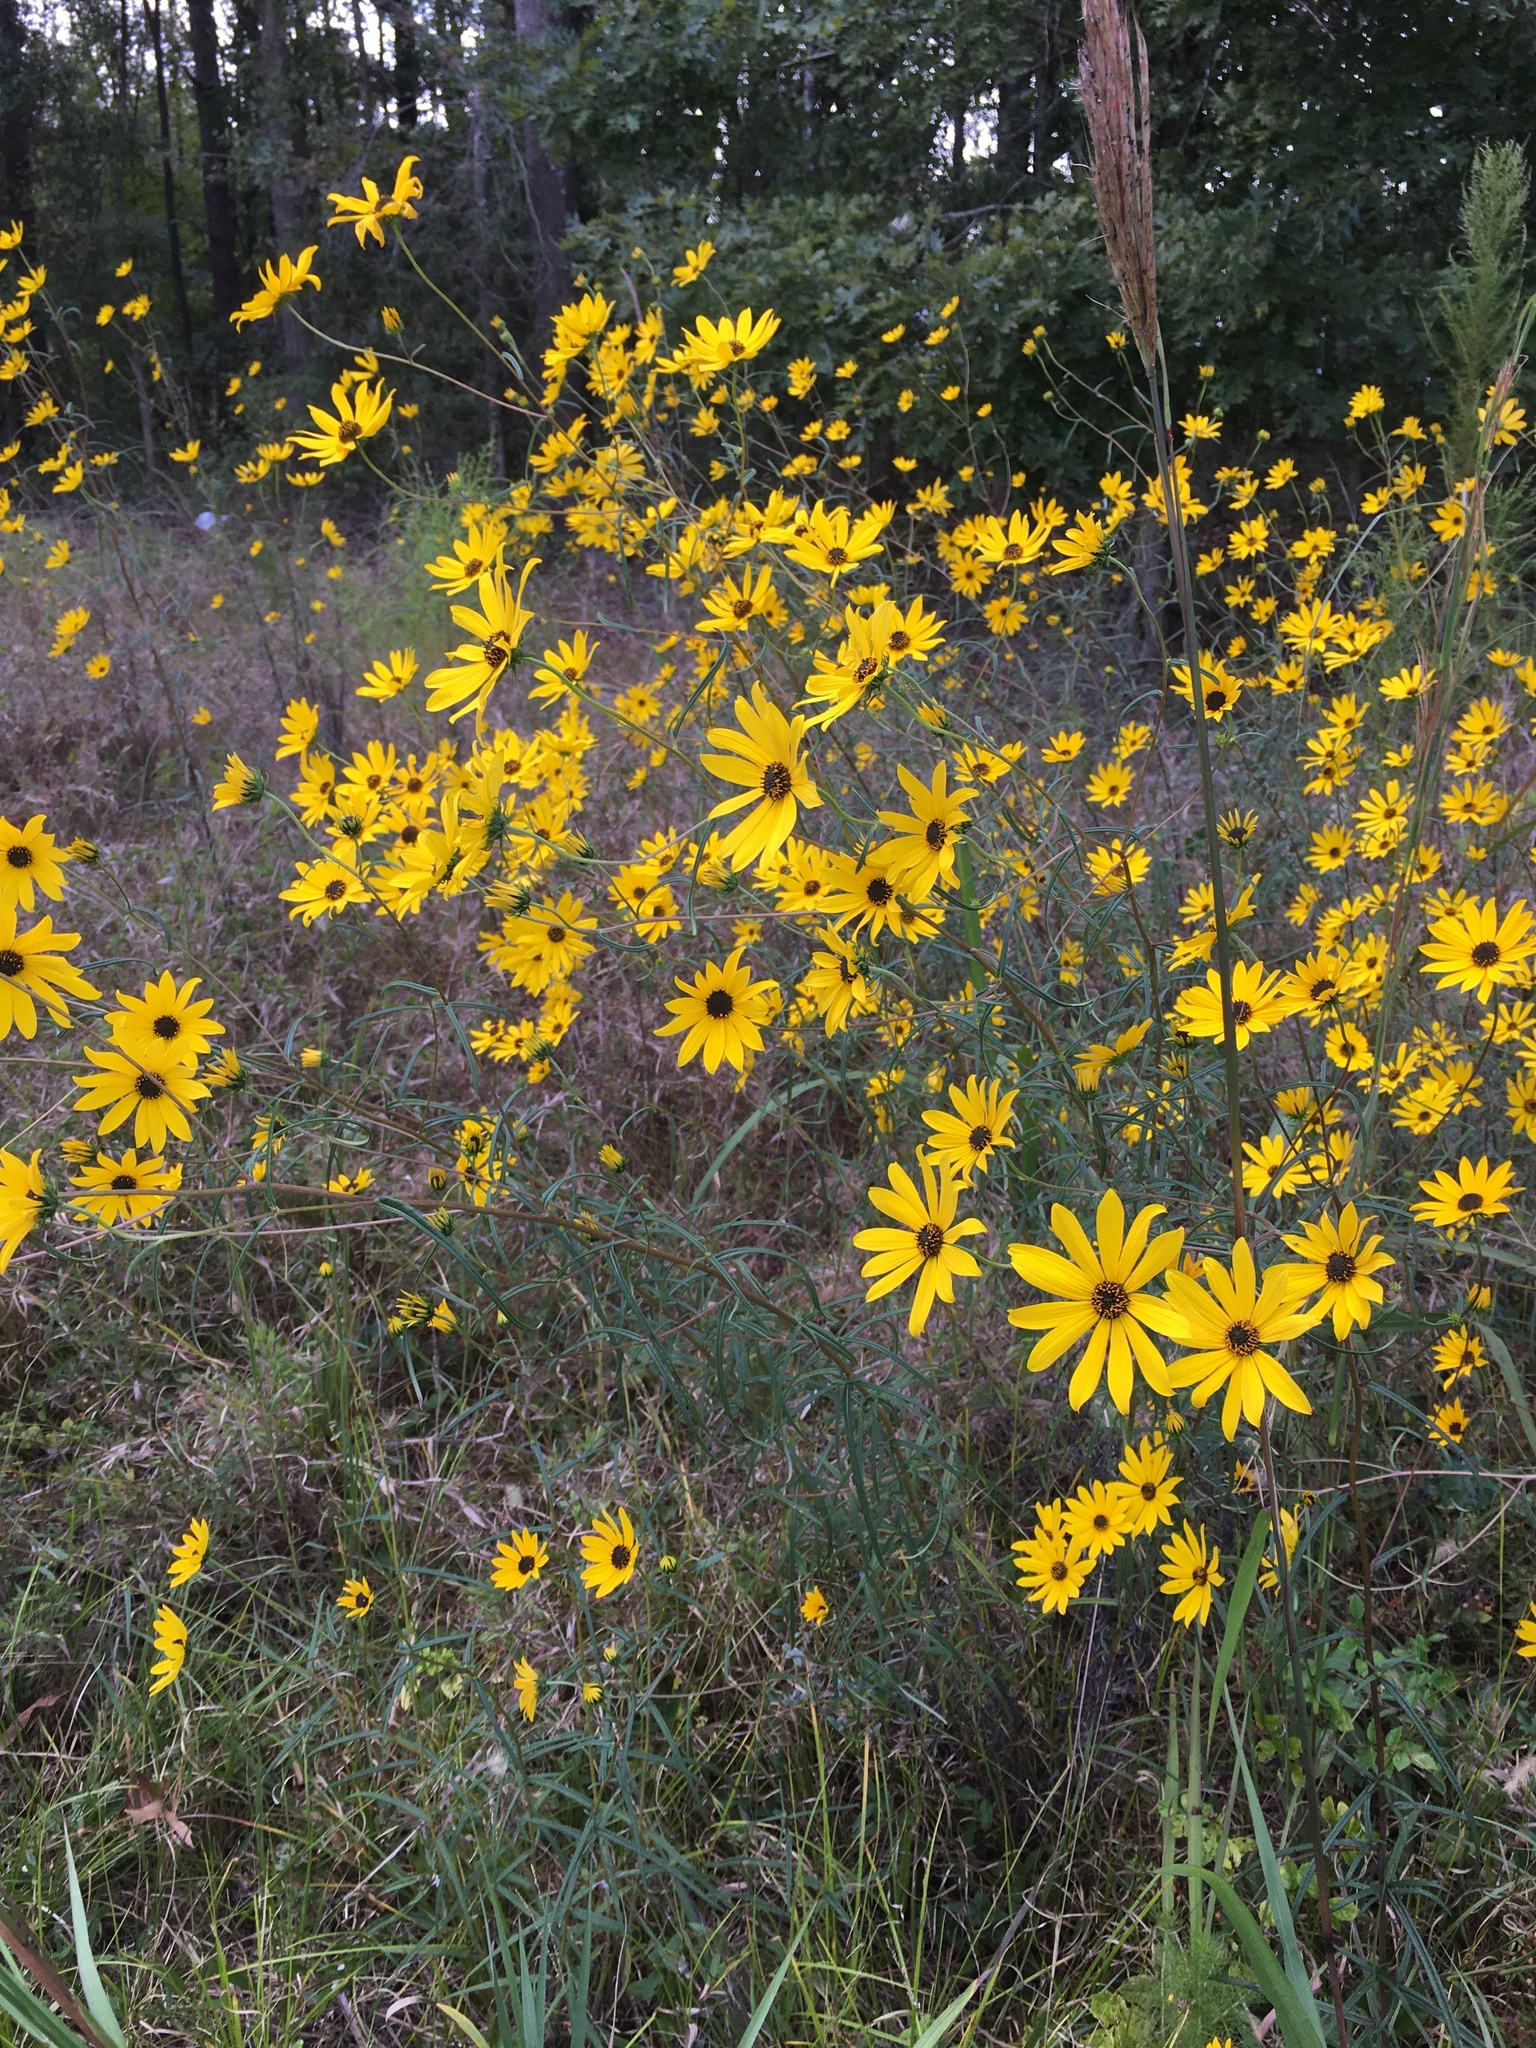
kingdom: Plantae
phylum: Tracheophyta
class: Magnoliopsida
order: Asterales
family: Asteraceae
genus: Helianthus
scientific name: Helianthus angustifolius
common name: Swamp sunflower
